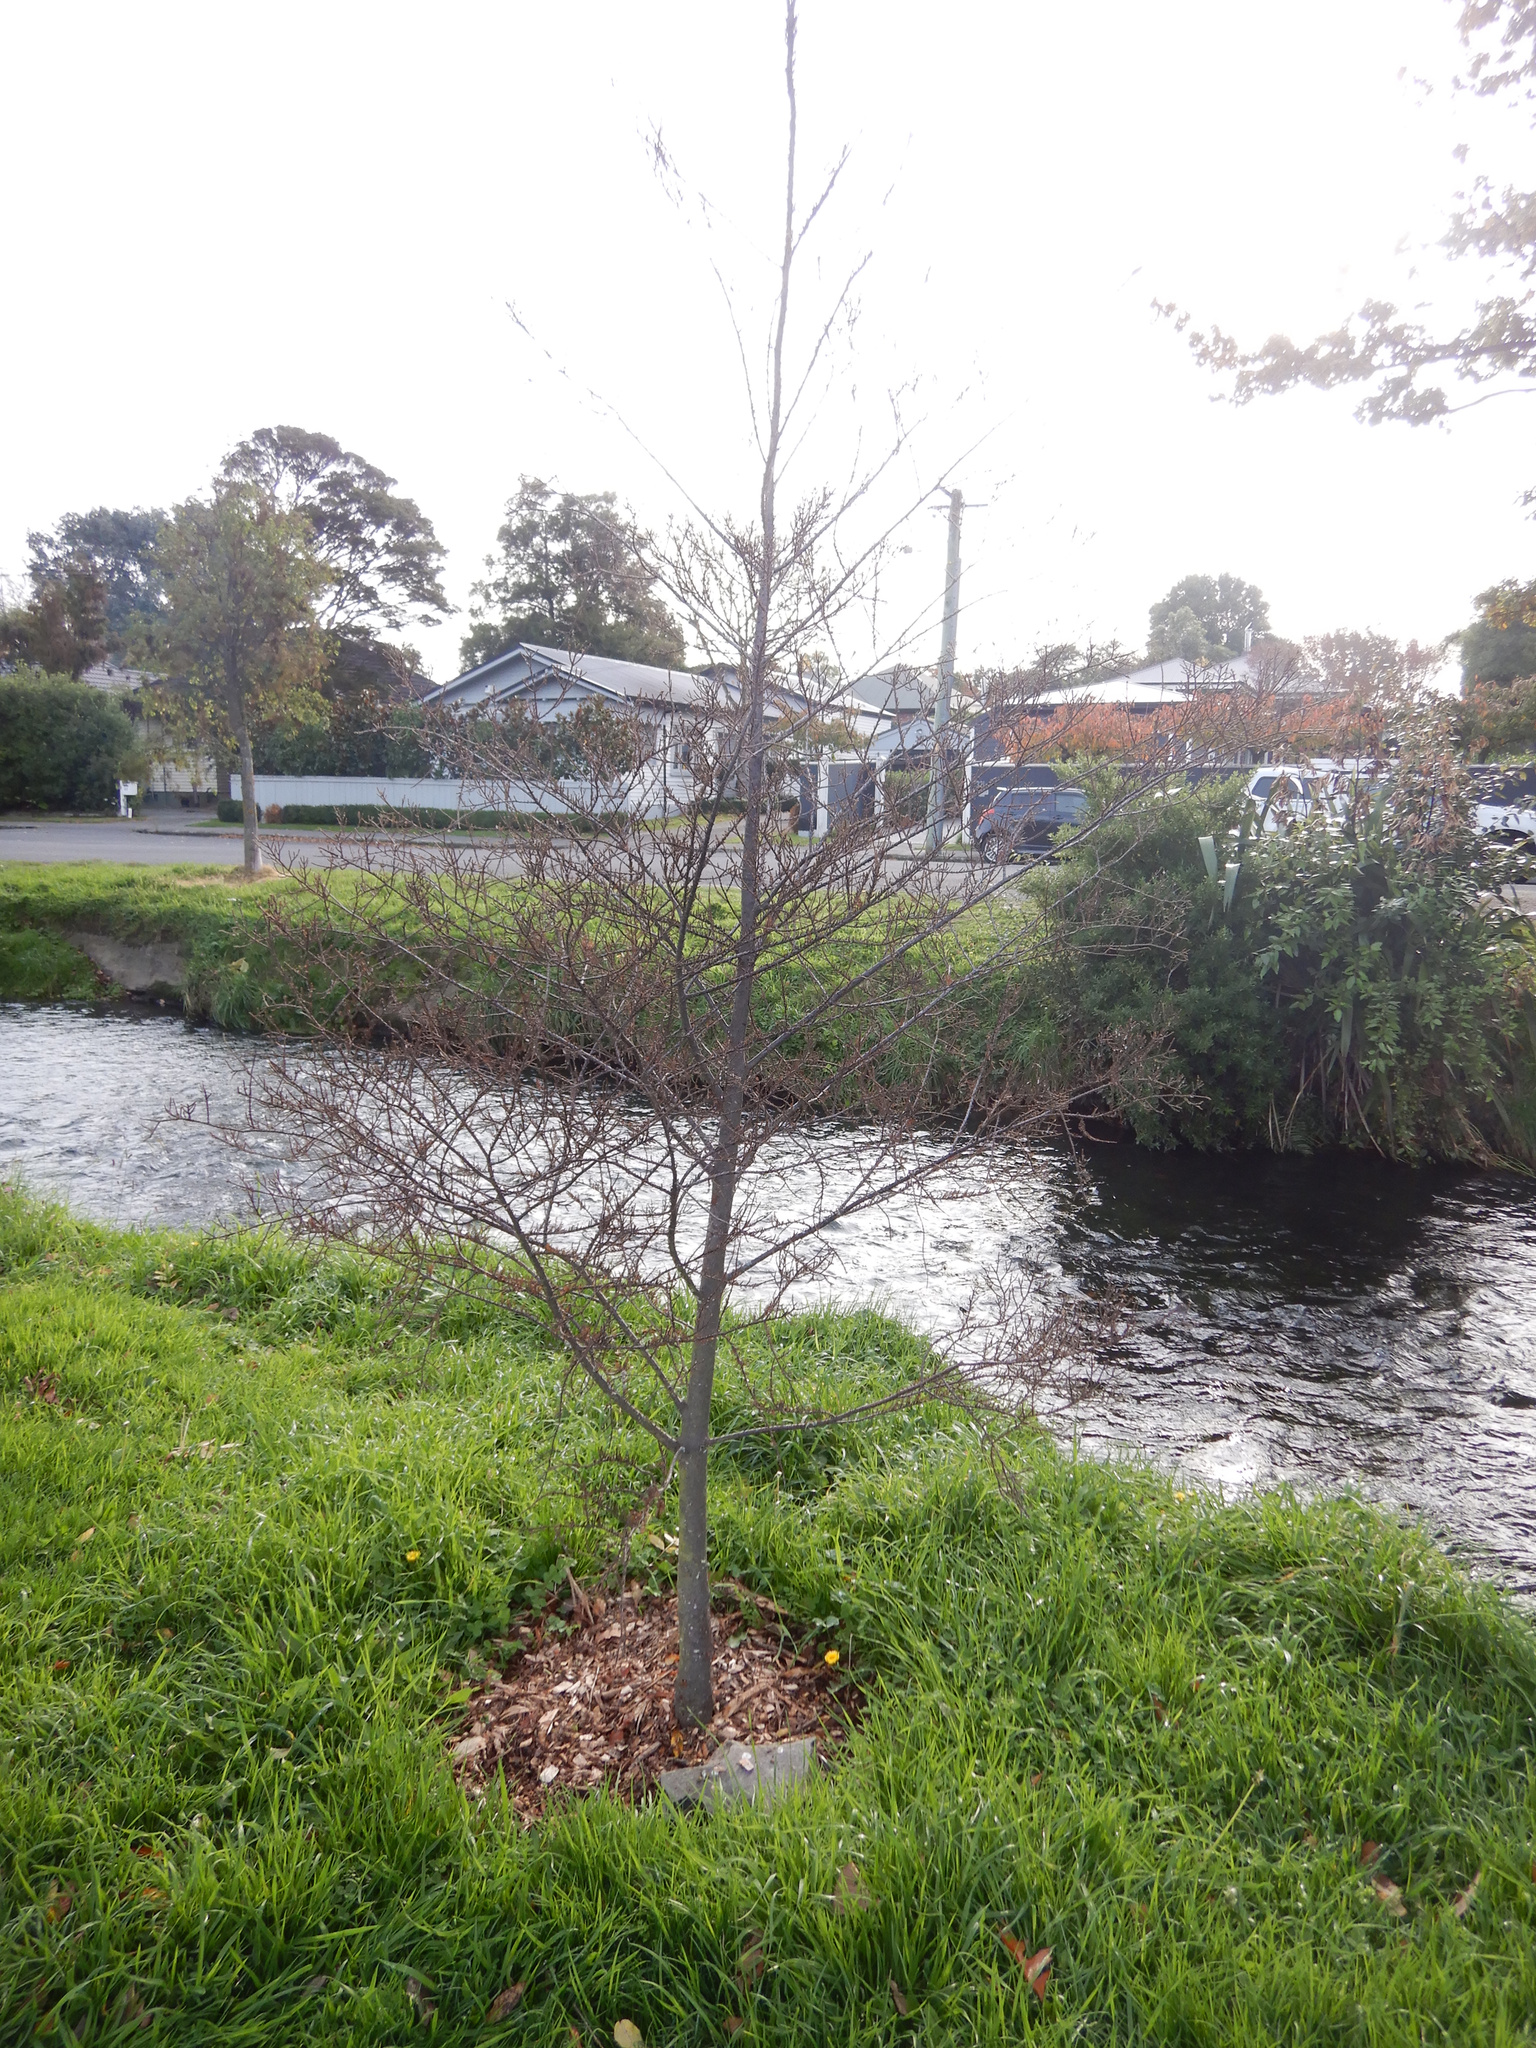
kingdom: Plantae
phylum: Tracheophyta
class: Pinopsida
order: Pinales
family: Podocarpaceae
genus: Dacrycarpus
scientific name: Dacrycarpus dacrydioides
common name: White pine
